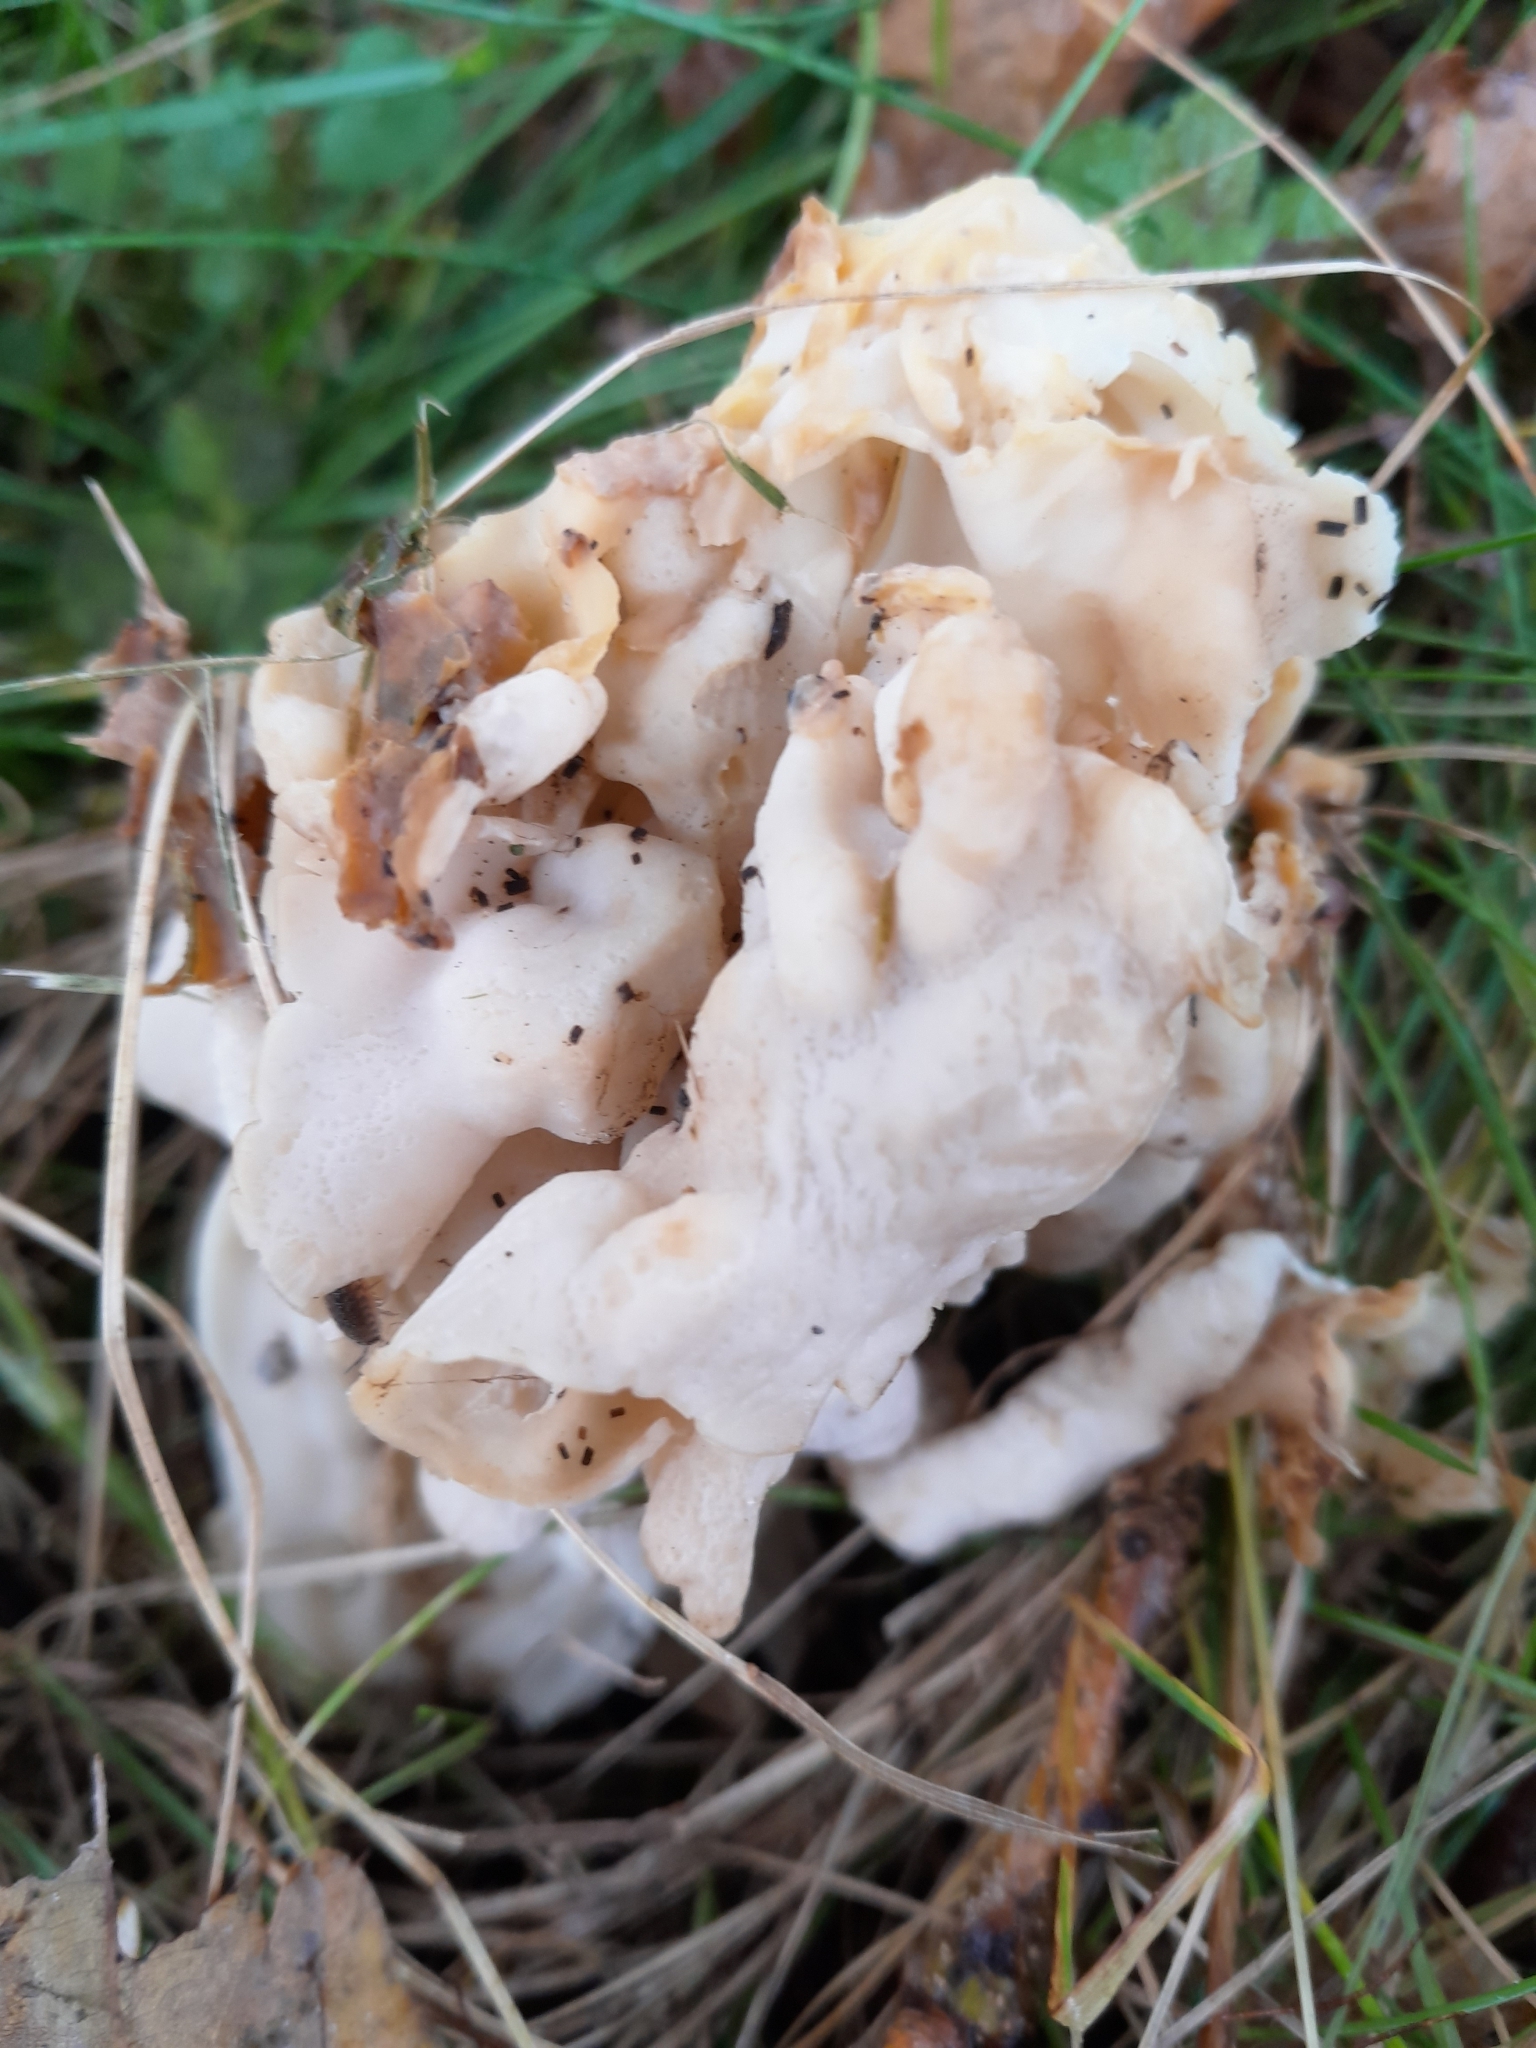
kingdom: Fungi
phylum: Ascomycota
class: Pezizomycetes
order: Pezizales
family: Helvellaceae
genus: Helvella
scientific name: Helvella crispa
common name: White saddle
